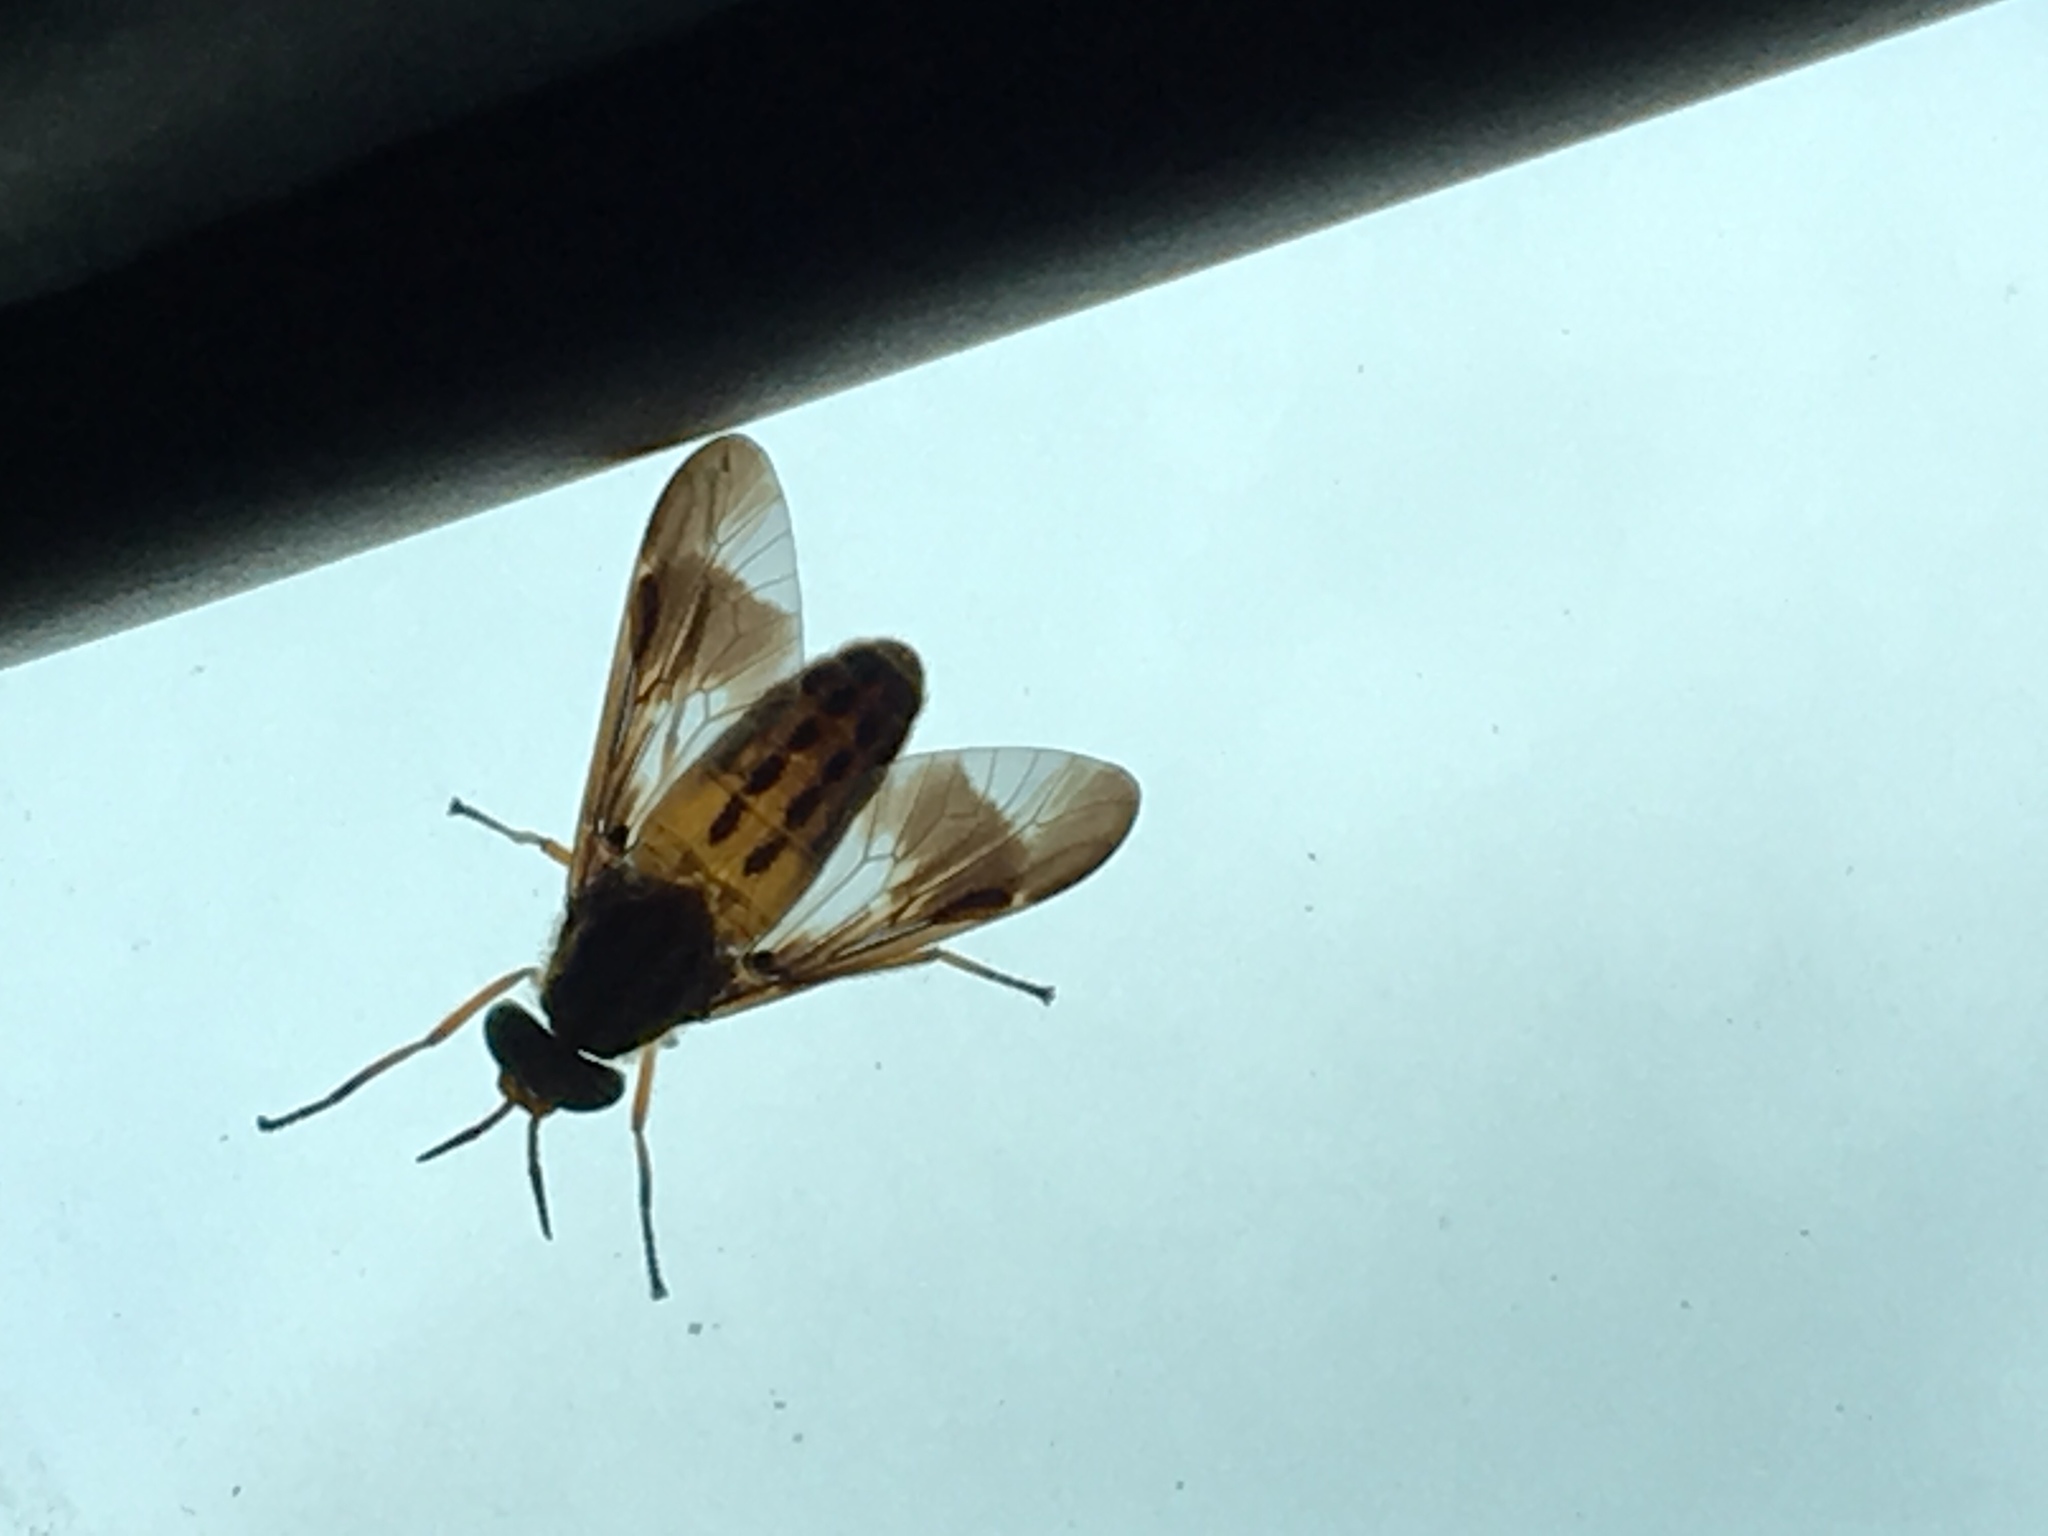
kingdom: Animalia
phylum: Arthropoda
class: Insecta
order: Diptera
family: Tabanidae
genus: Chrysops
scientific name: Chrysops vittatus
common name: Striped deer fly
